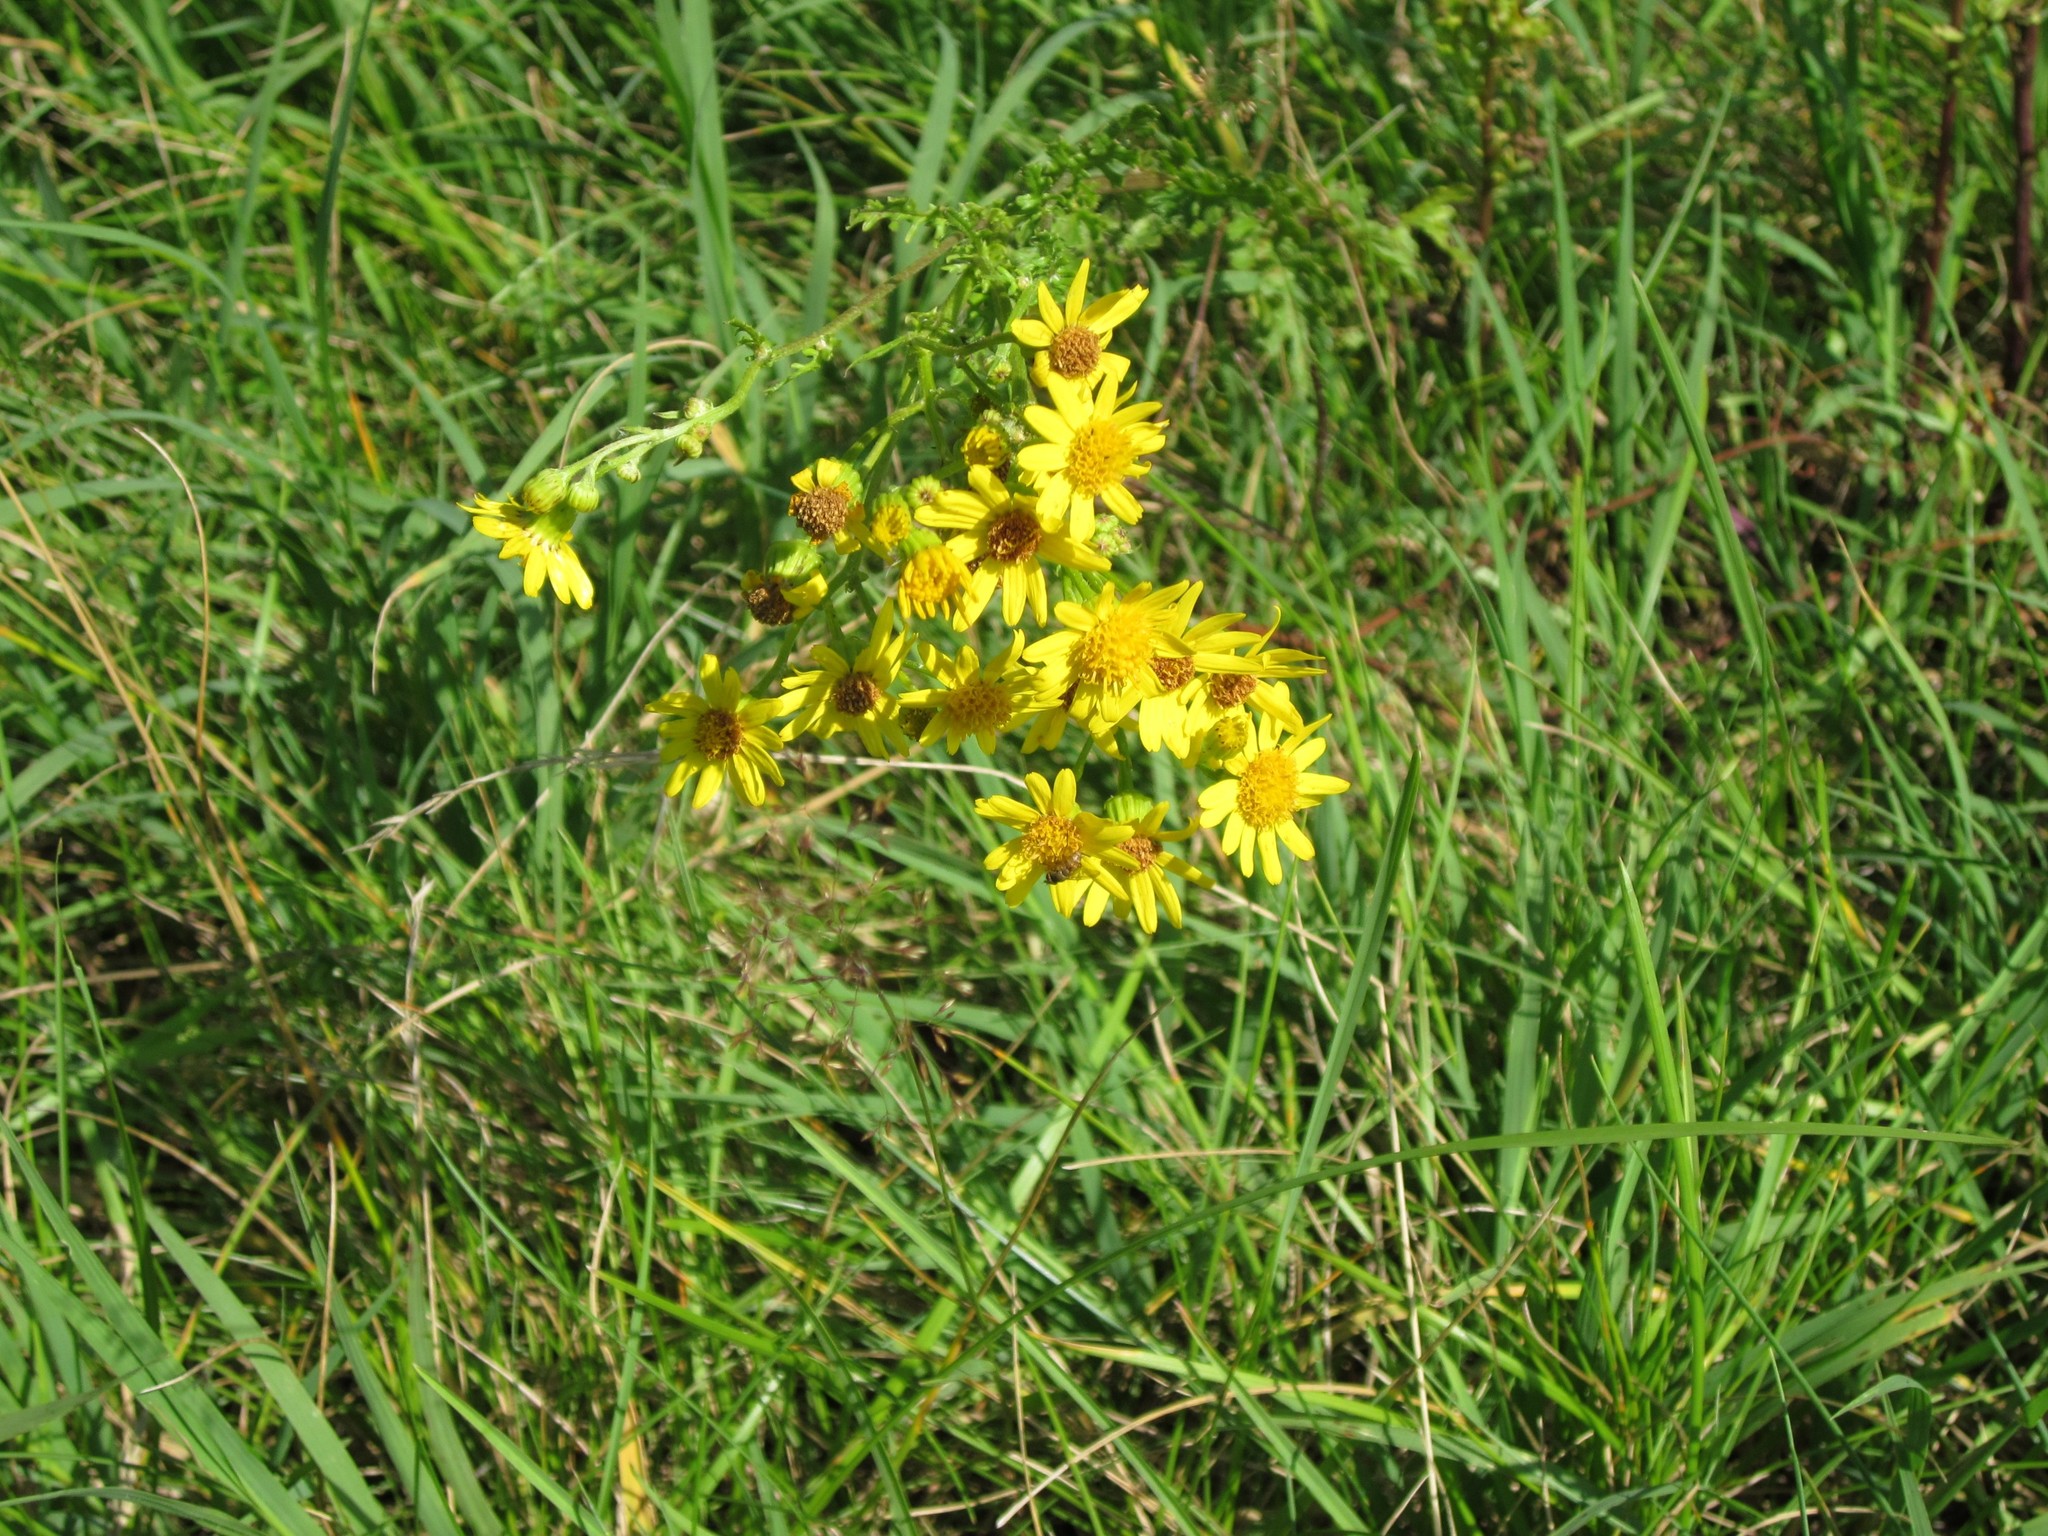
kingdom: Plantae
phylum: Tracheophyta
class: Magnoliopsida
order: Asterales
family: Asteraceae
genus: Jacobaea
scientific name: Jacobaea vulgaris
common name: Stinking willie
